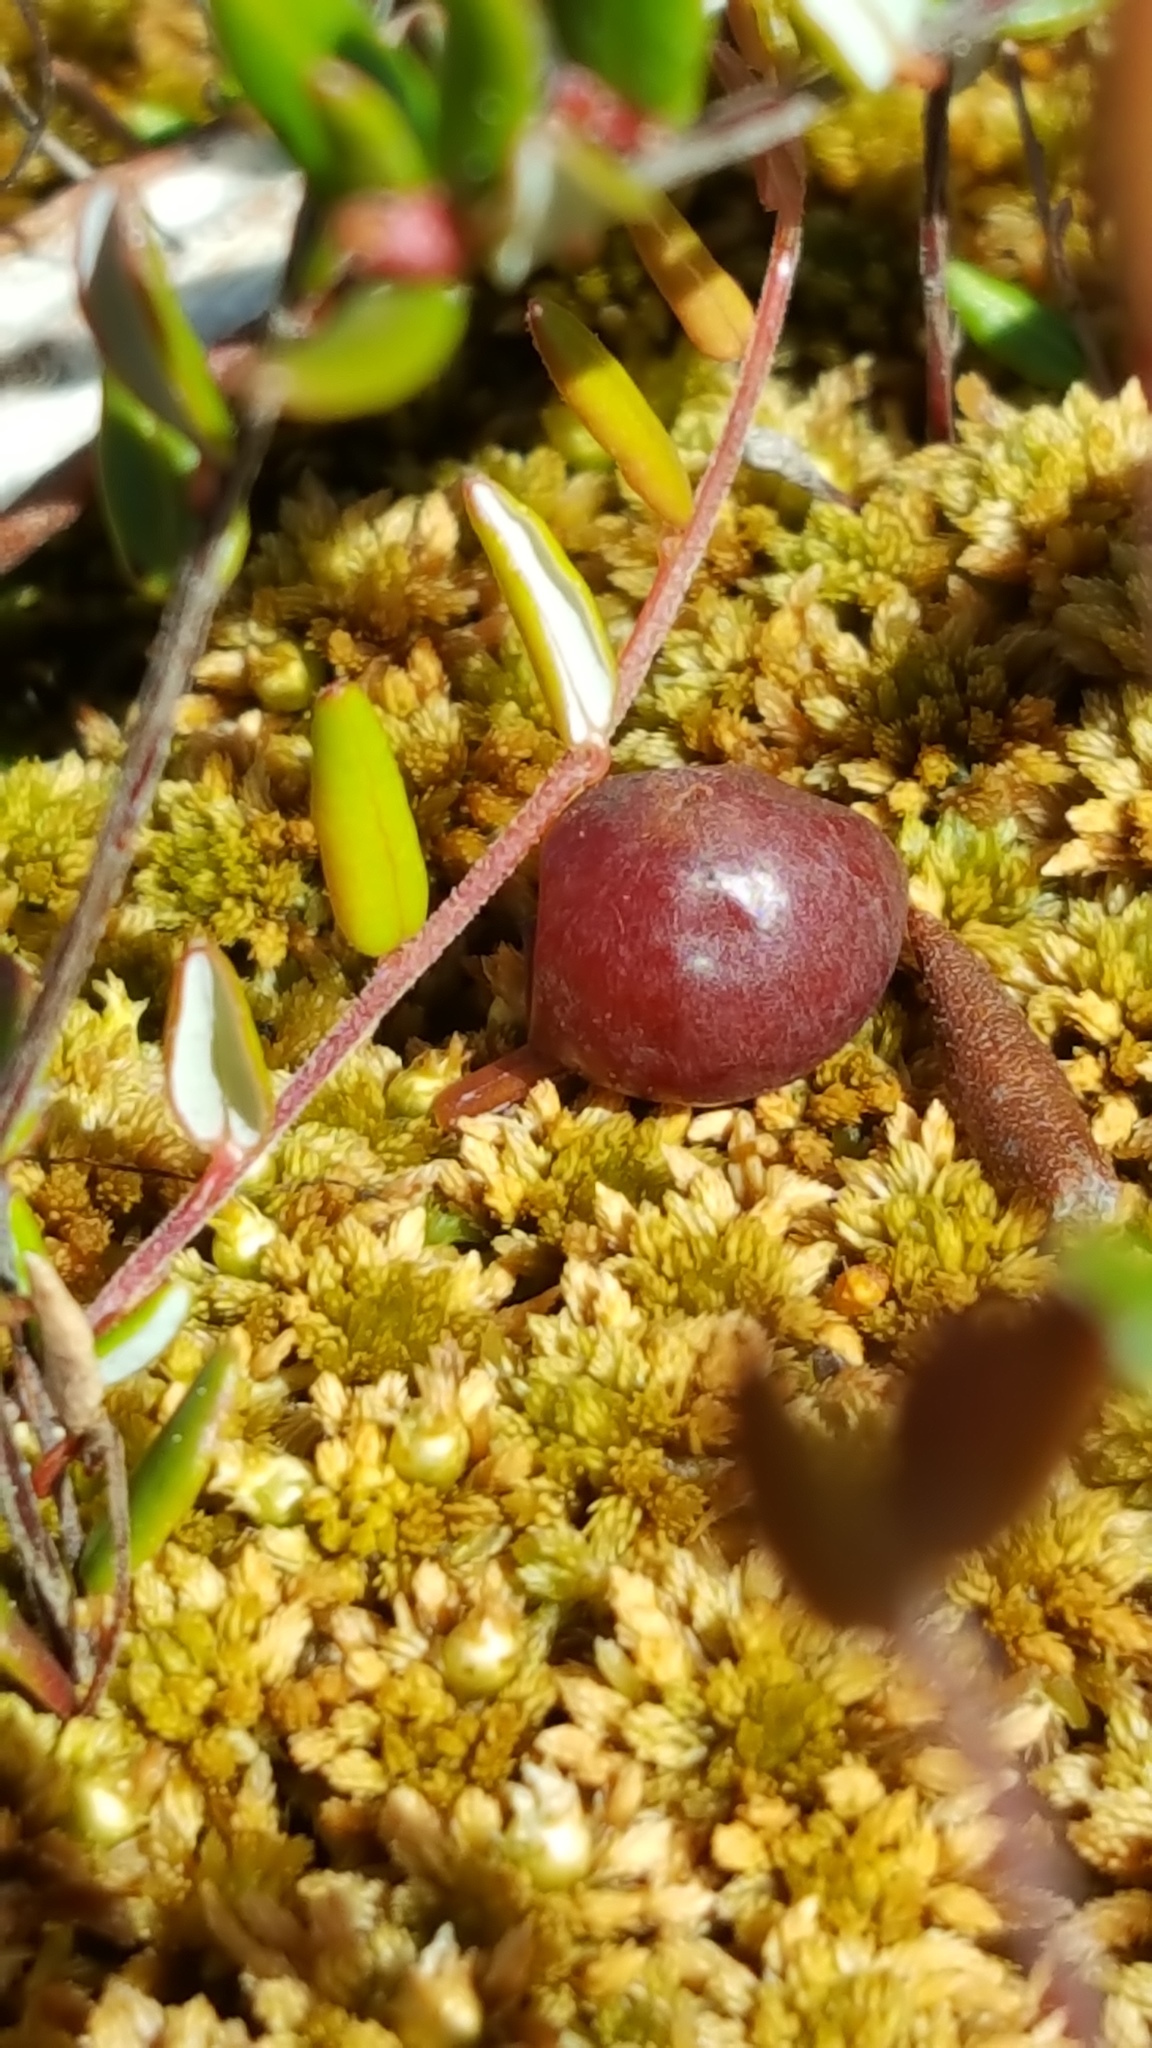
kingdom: Plantae
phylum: Tracheophyta
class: Magnoliopsida
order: Ericales
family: Ericaceae
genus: Vaccinium
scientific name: Vaccinium oxycoccos
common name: Cranberry
